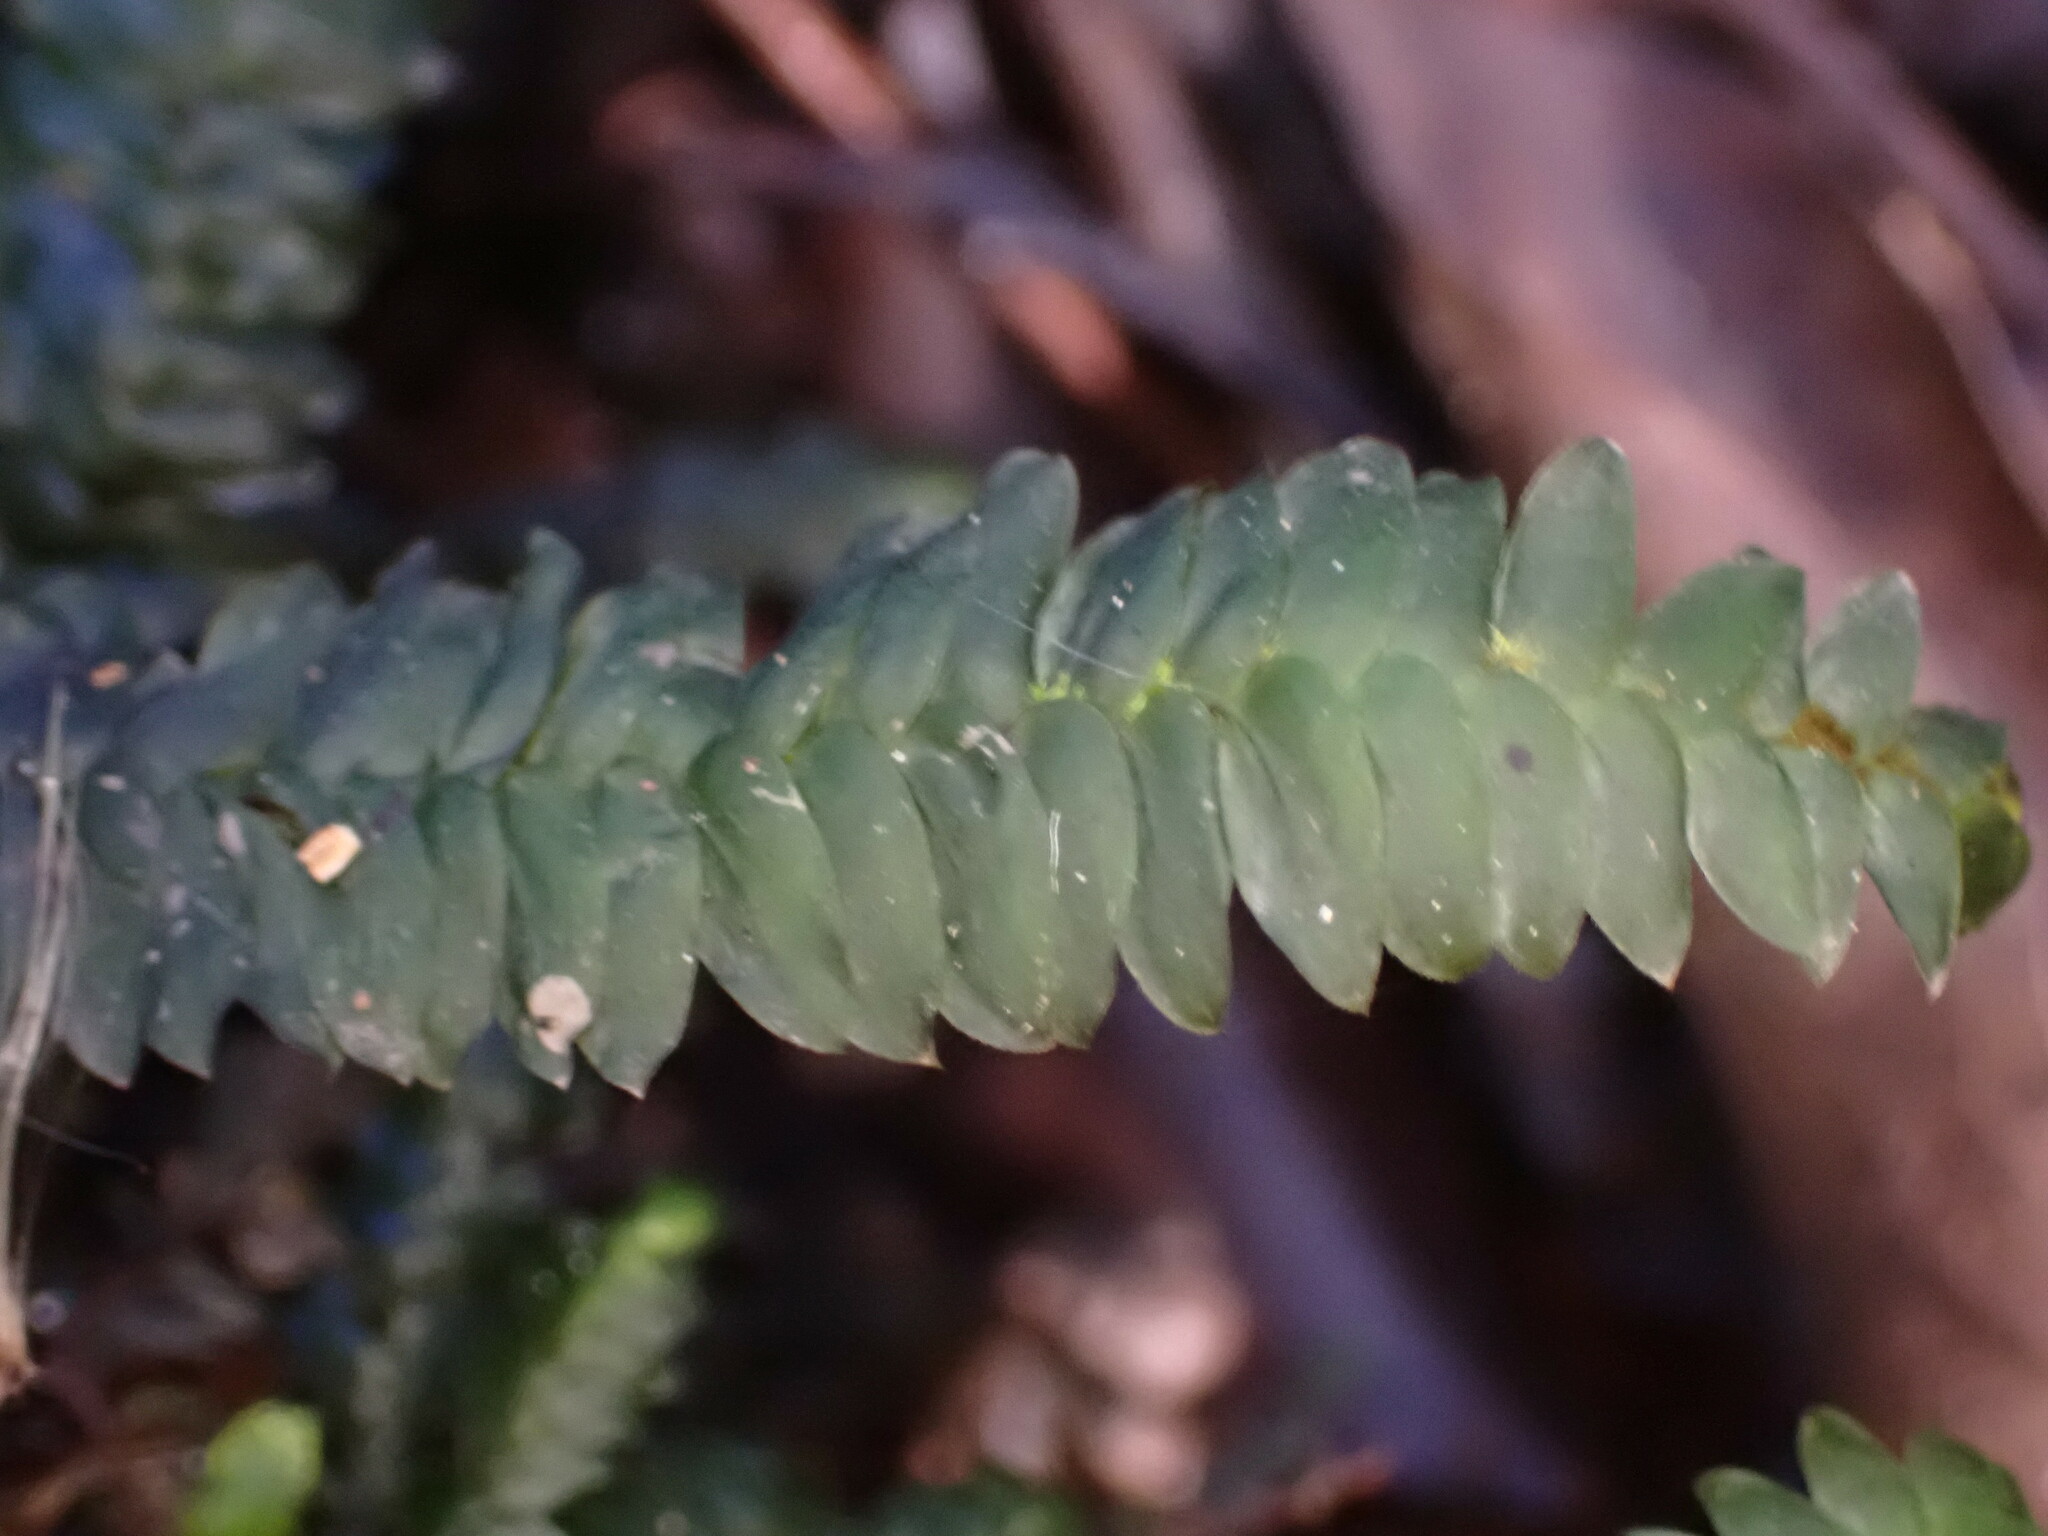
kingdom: Plantae
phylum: Bryophyta
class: Bryopsida
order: Hypopterygiales
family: Hypopterygiaceae
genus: Cyathophorum
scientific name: Cyathophorum bulbosum
